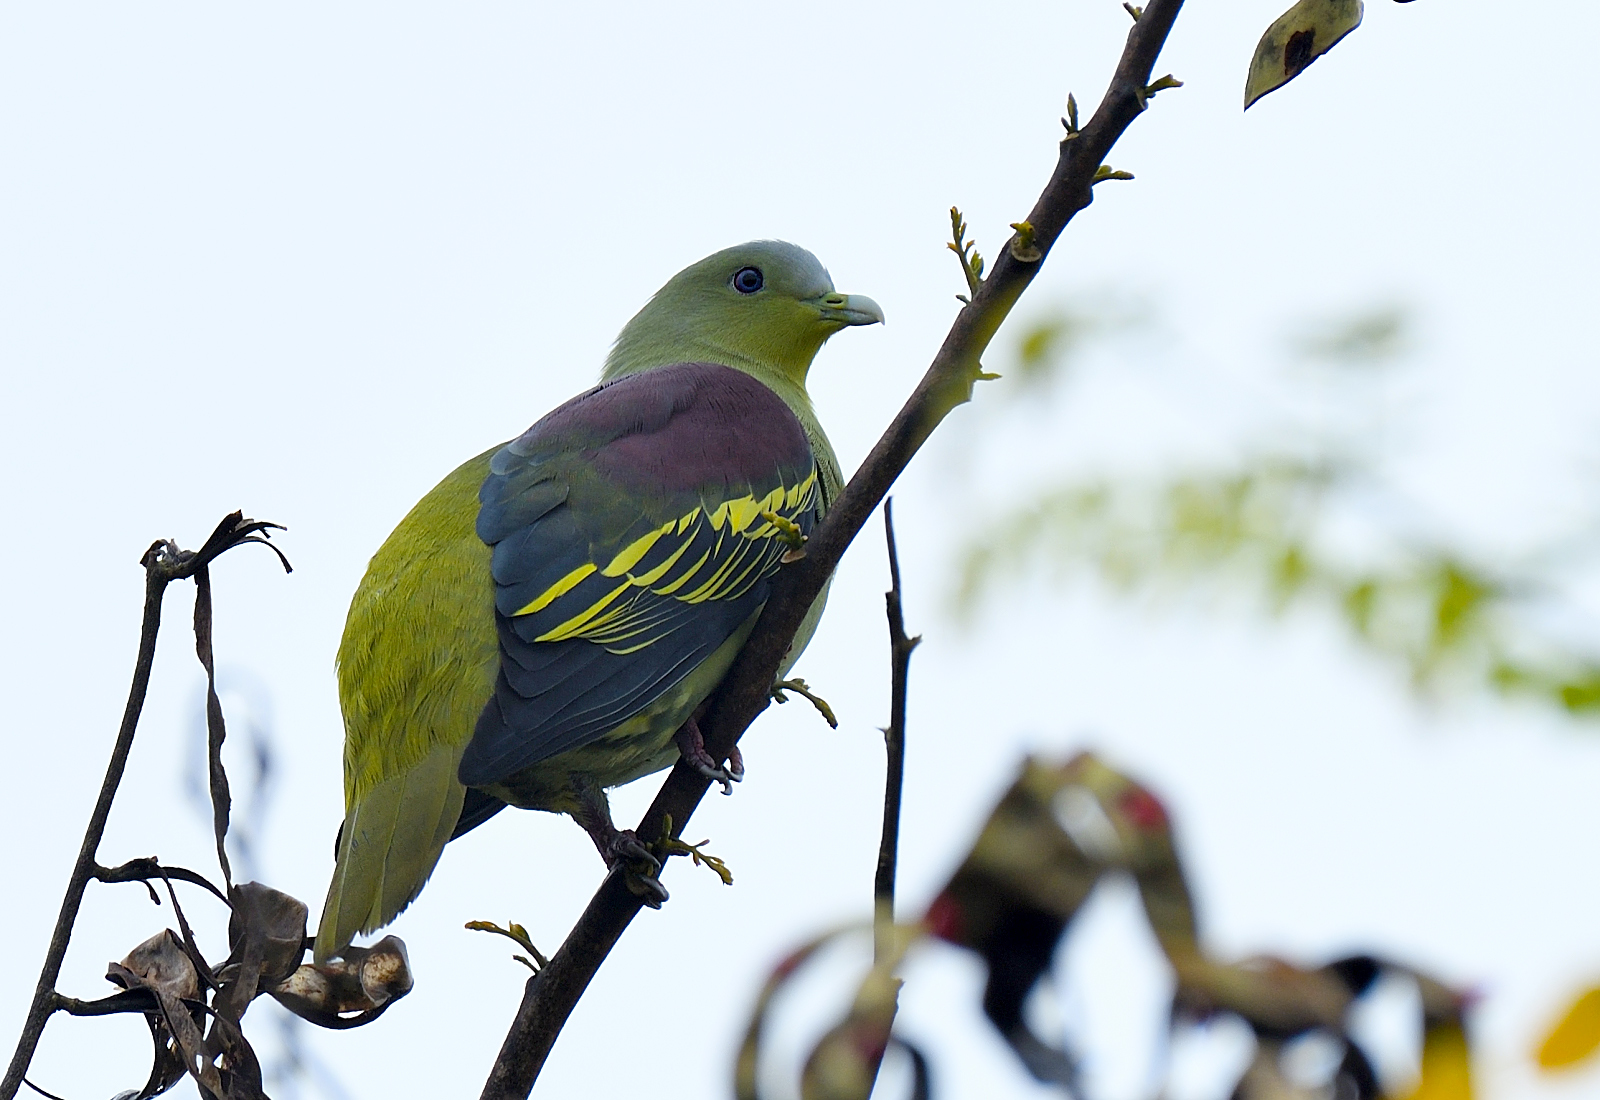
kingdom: Animalia
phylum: Chordata
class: Aves
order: Columbiformes
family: Columbidae
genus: Treron
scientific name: Treron affinis
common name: Grey-fronted green pigeon
